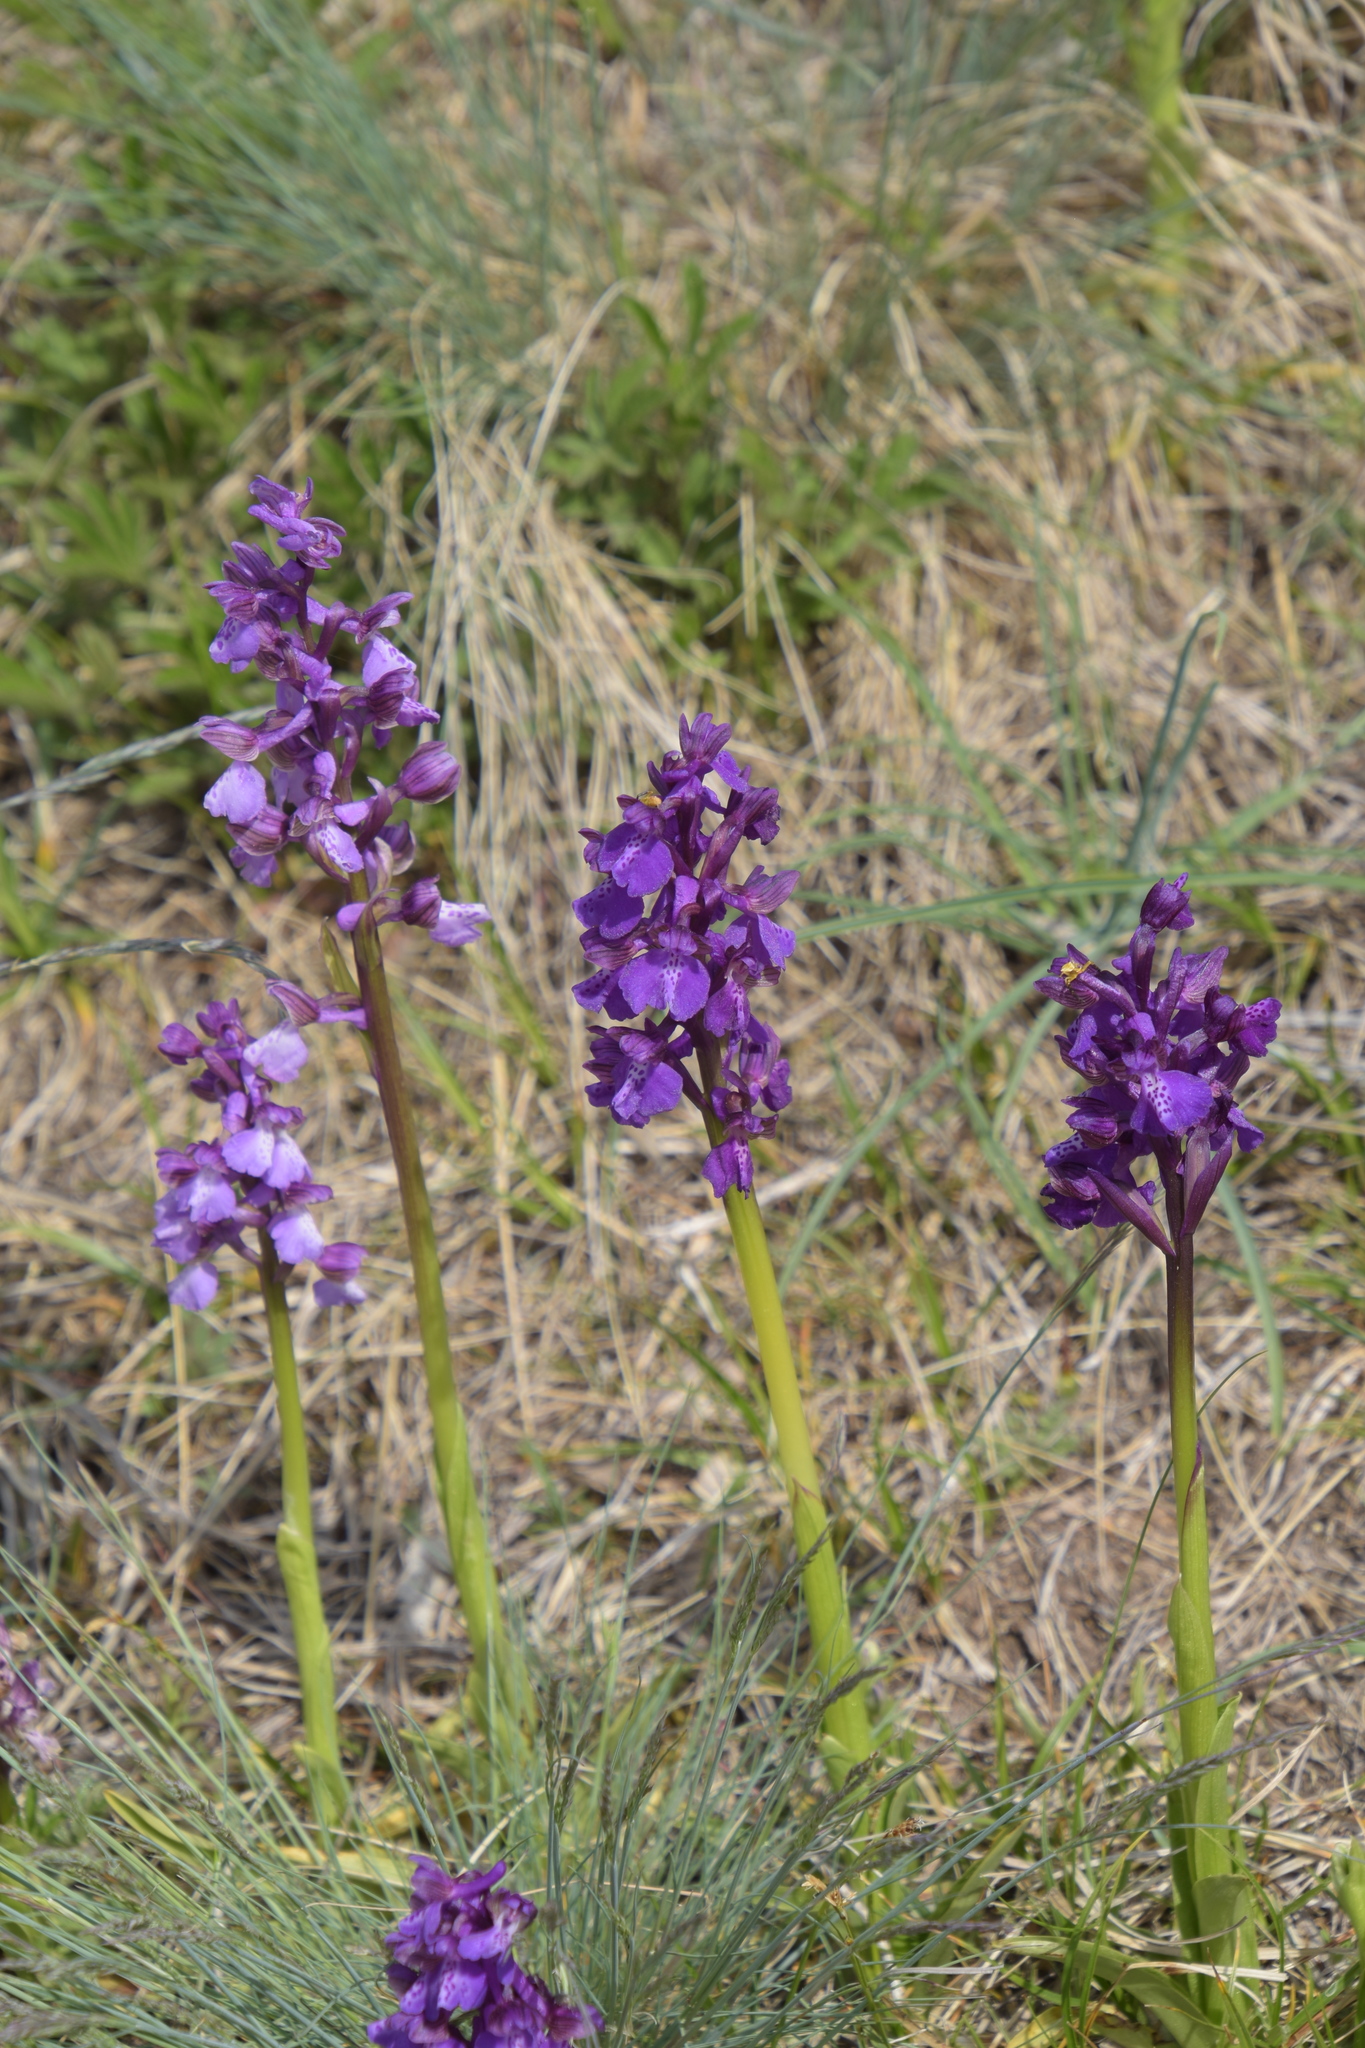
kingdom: Plantae
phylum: Tracheophyta
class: Liliopsida
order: Asparagales
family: Orchidaceae
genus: Anacamptis
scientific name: Anacamptis morio
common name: Green-winged orchid
